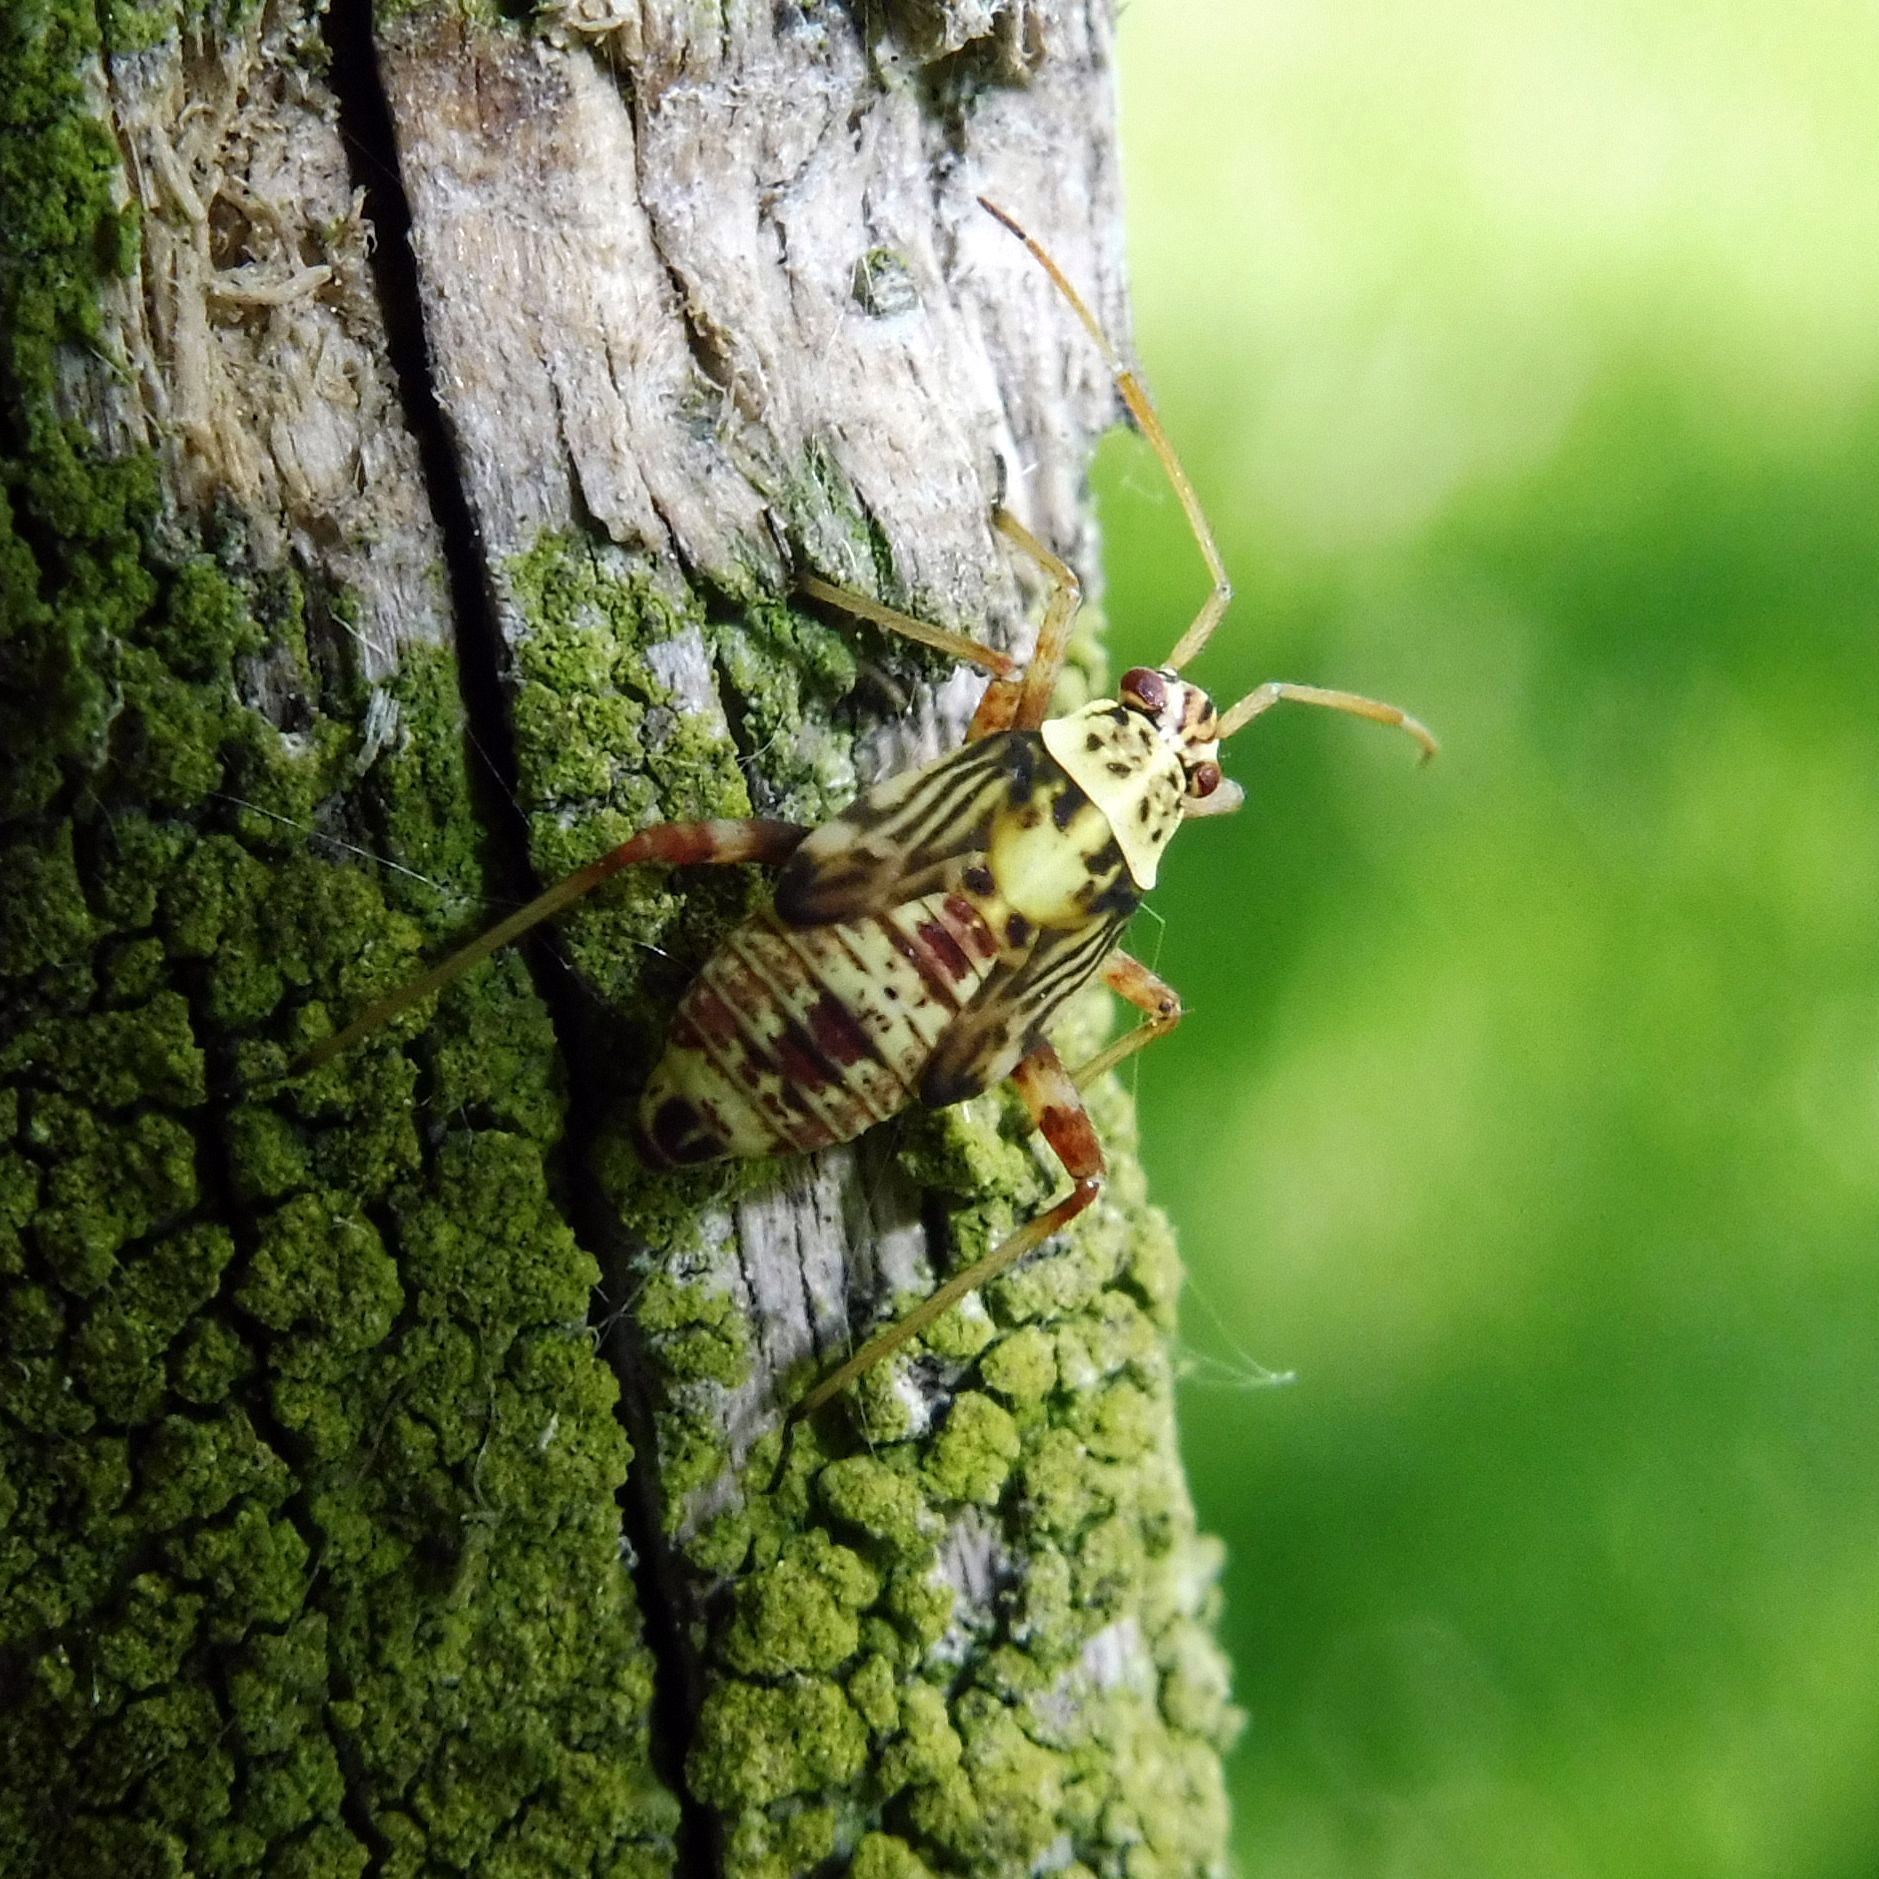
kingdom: Animalia
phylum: Arthropoda
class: Insecta
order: Hemiptera
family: Miridae
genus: Rhabdomiris
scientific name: Rhabdomiris striatellus
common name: Plant bug
